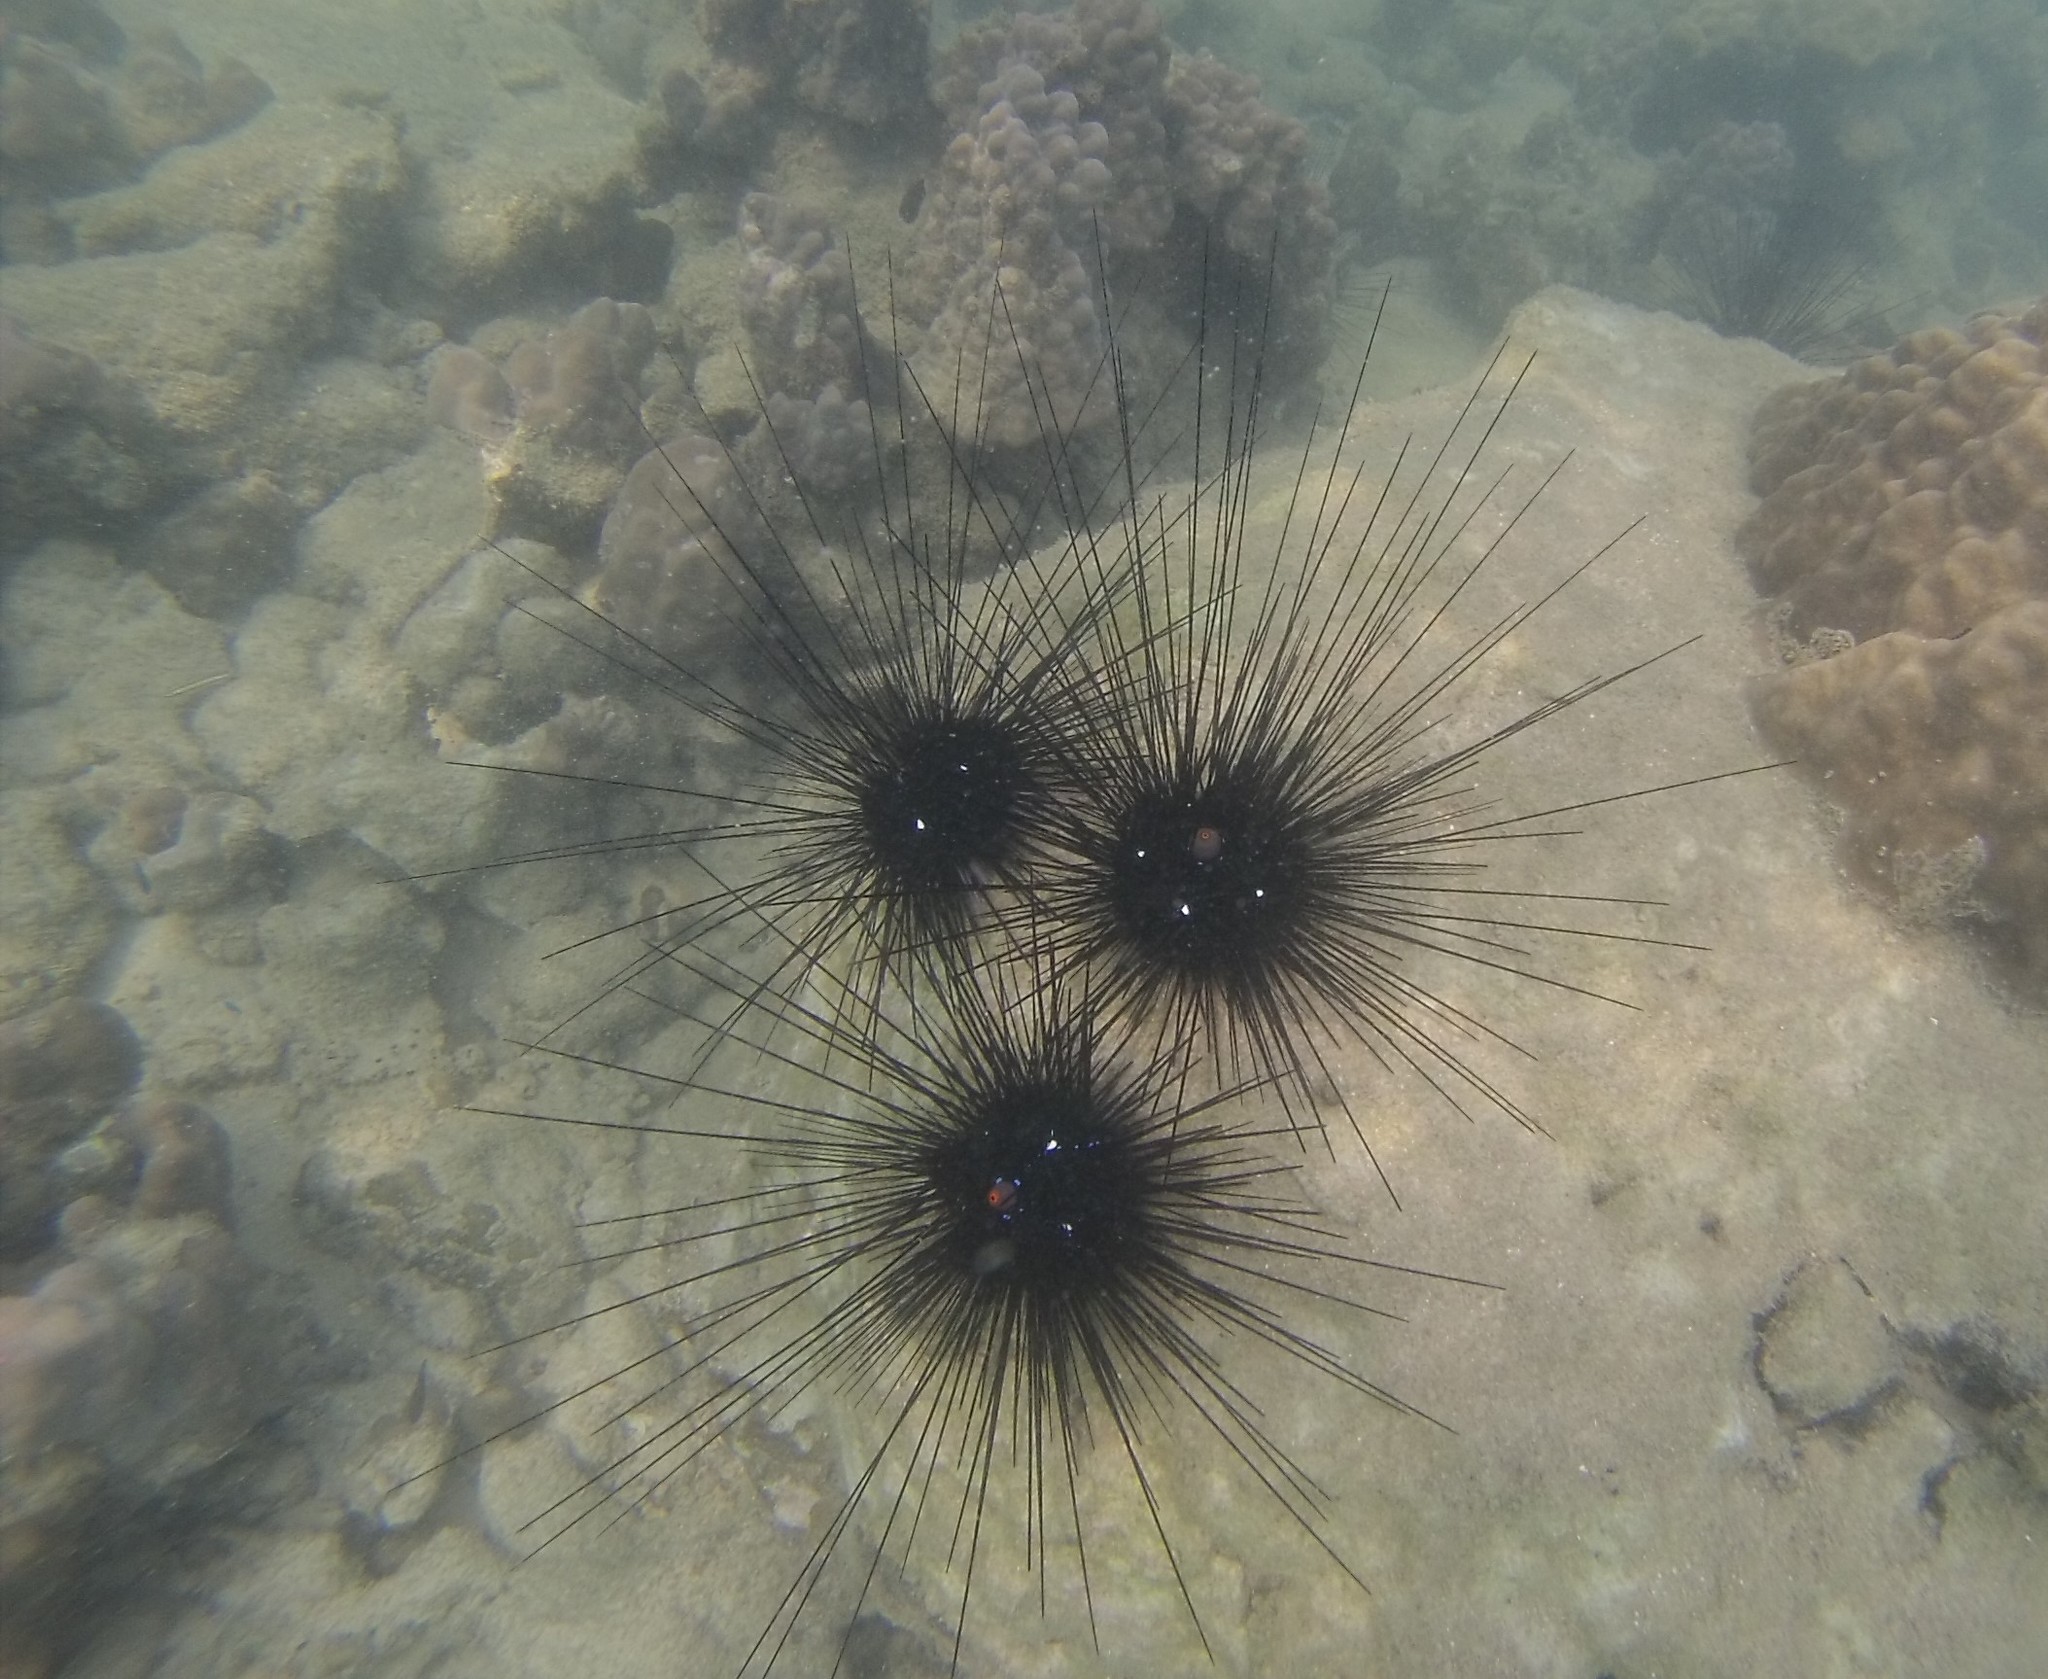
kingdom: Animalia
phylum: Echinodermata
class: Echinoidea
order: Diadematoida
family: Diadematidae
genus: Diadema
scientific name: Diadema setosum
